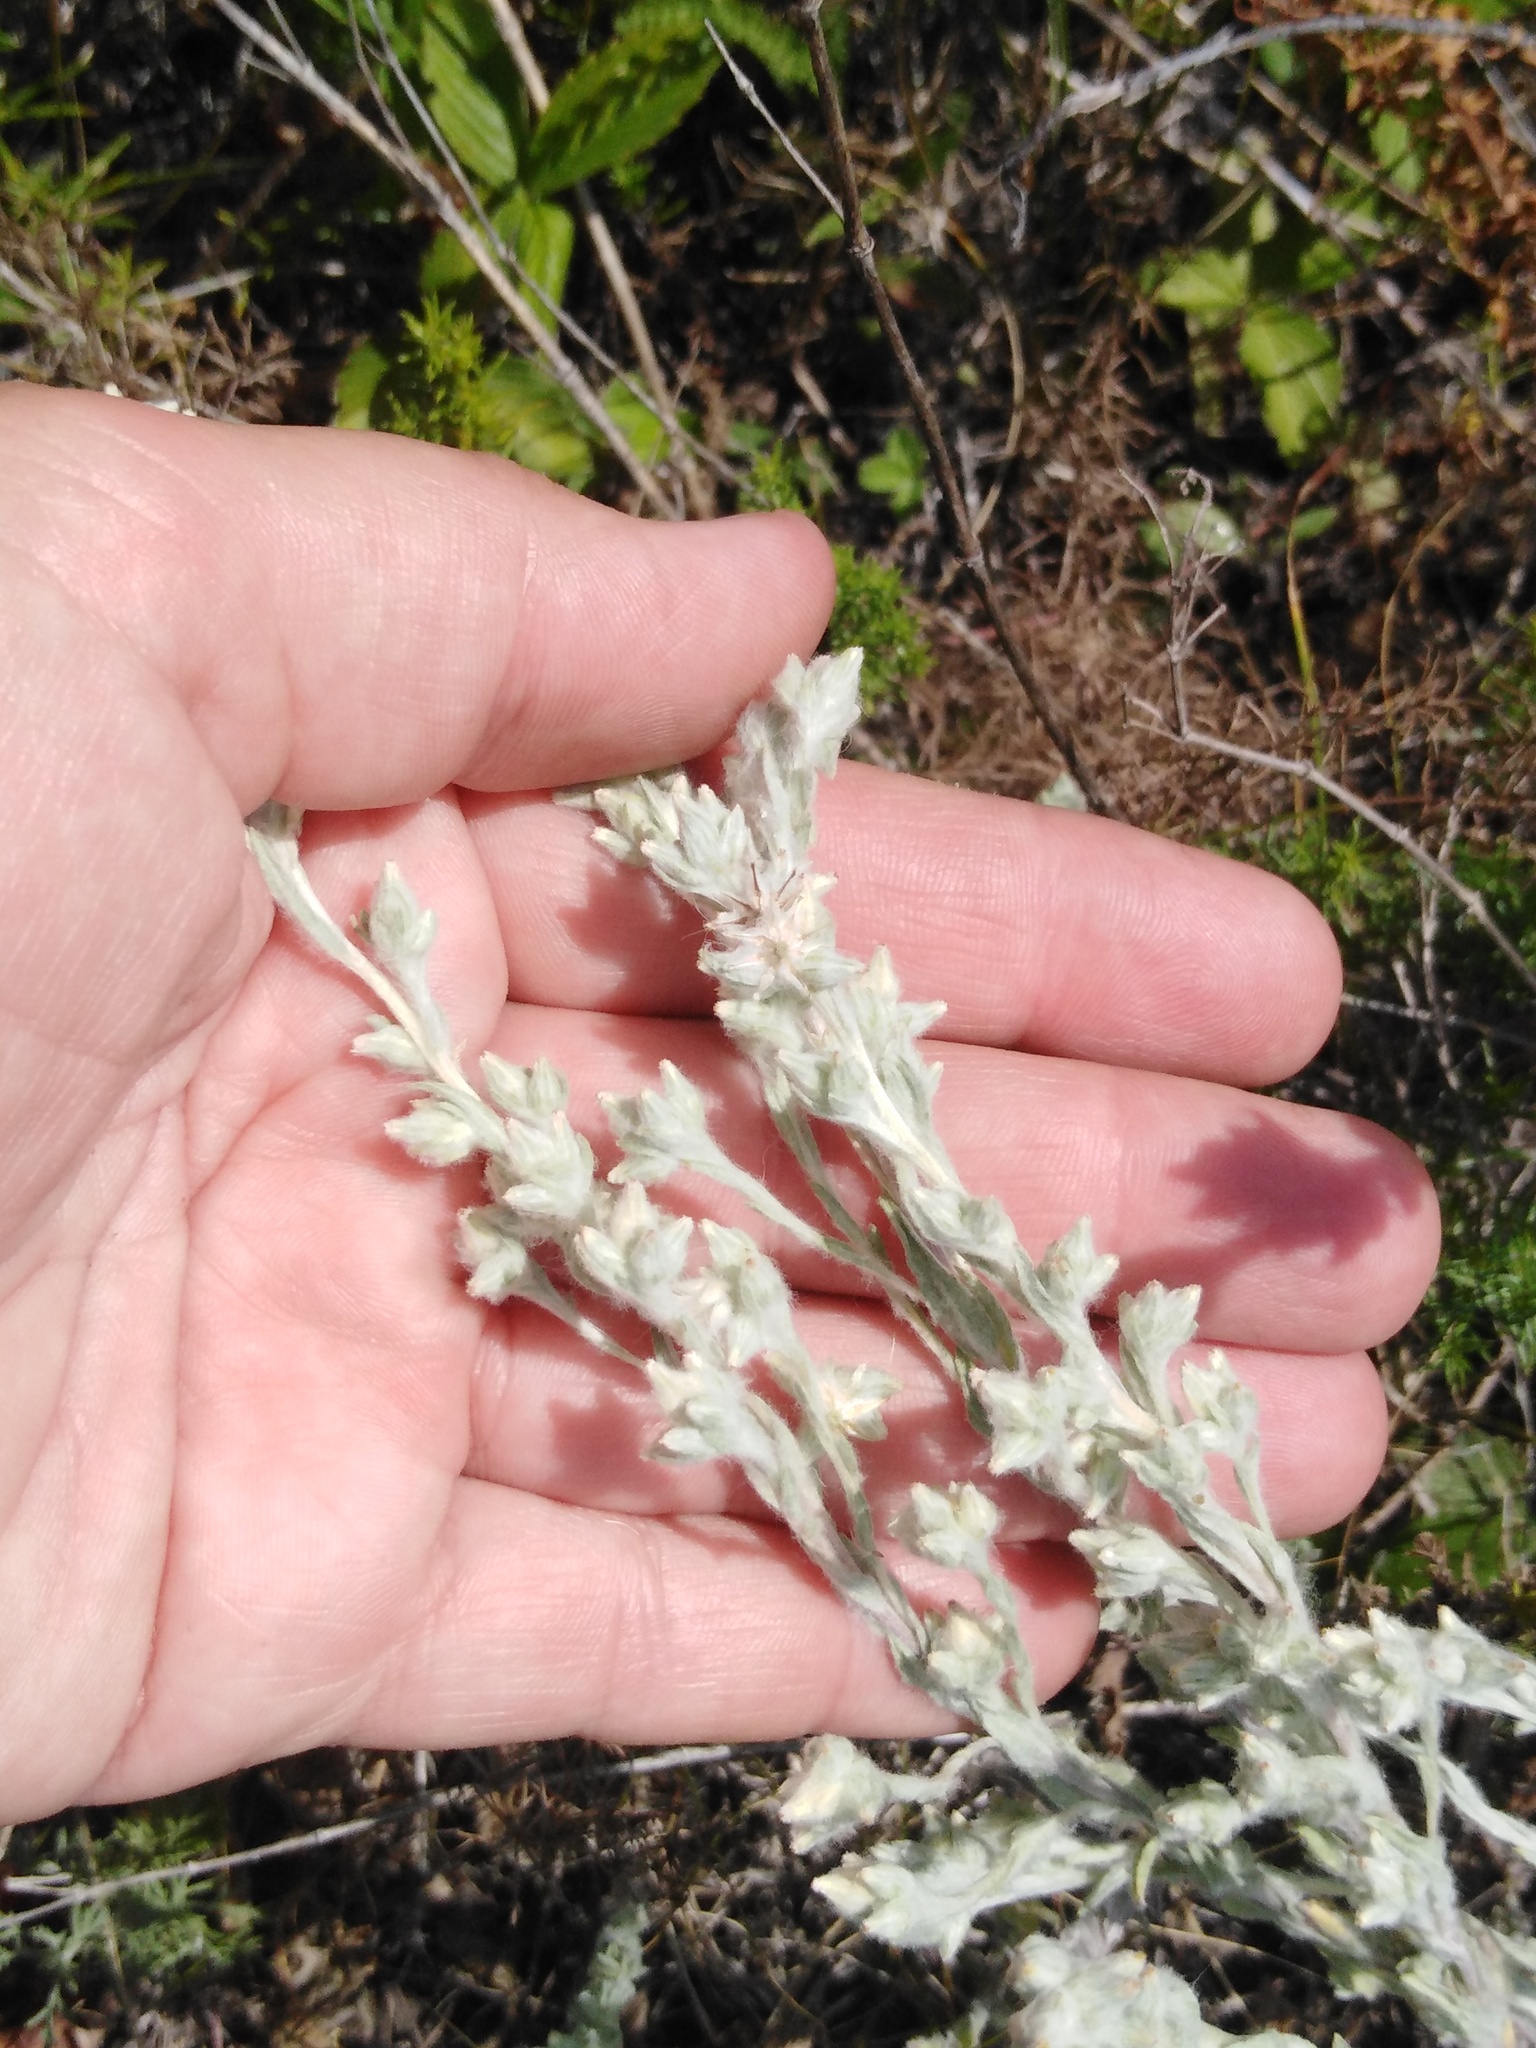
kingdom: Plantae
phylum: Tracheophyta
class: Magnoliopsida
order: Asterales
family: Asteraceae
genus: Filago
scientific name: Filago arvensis
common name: Field cudweed
